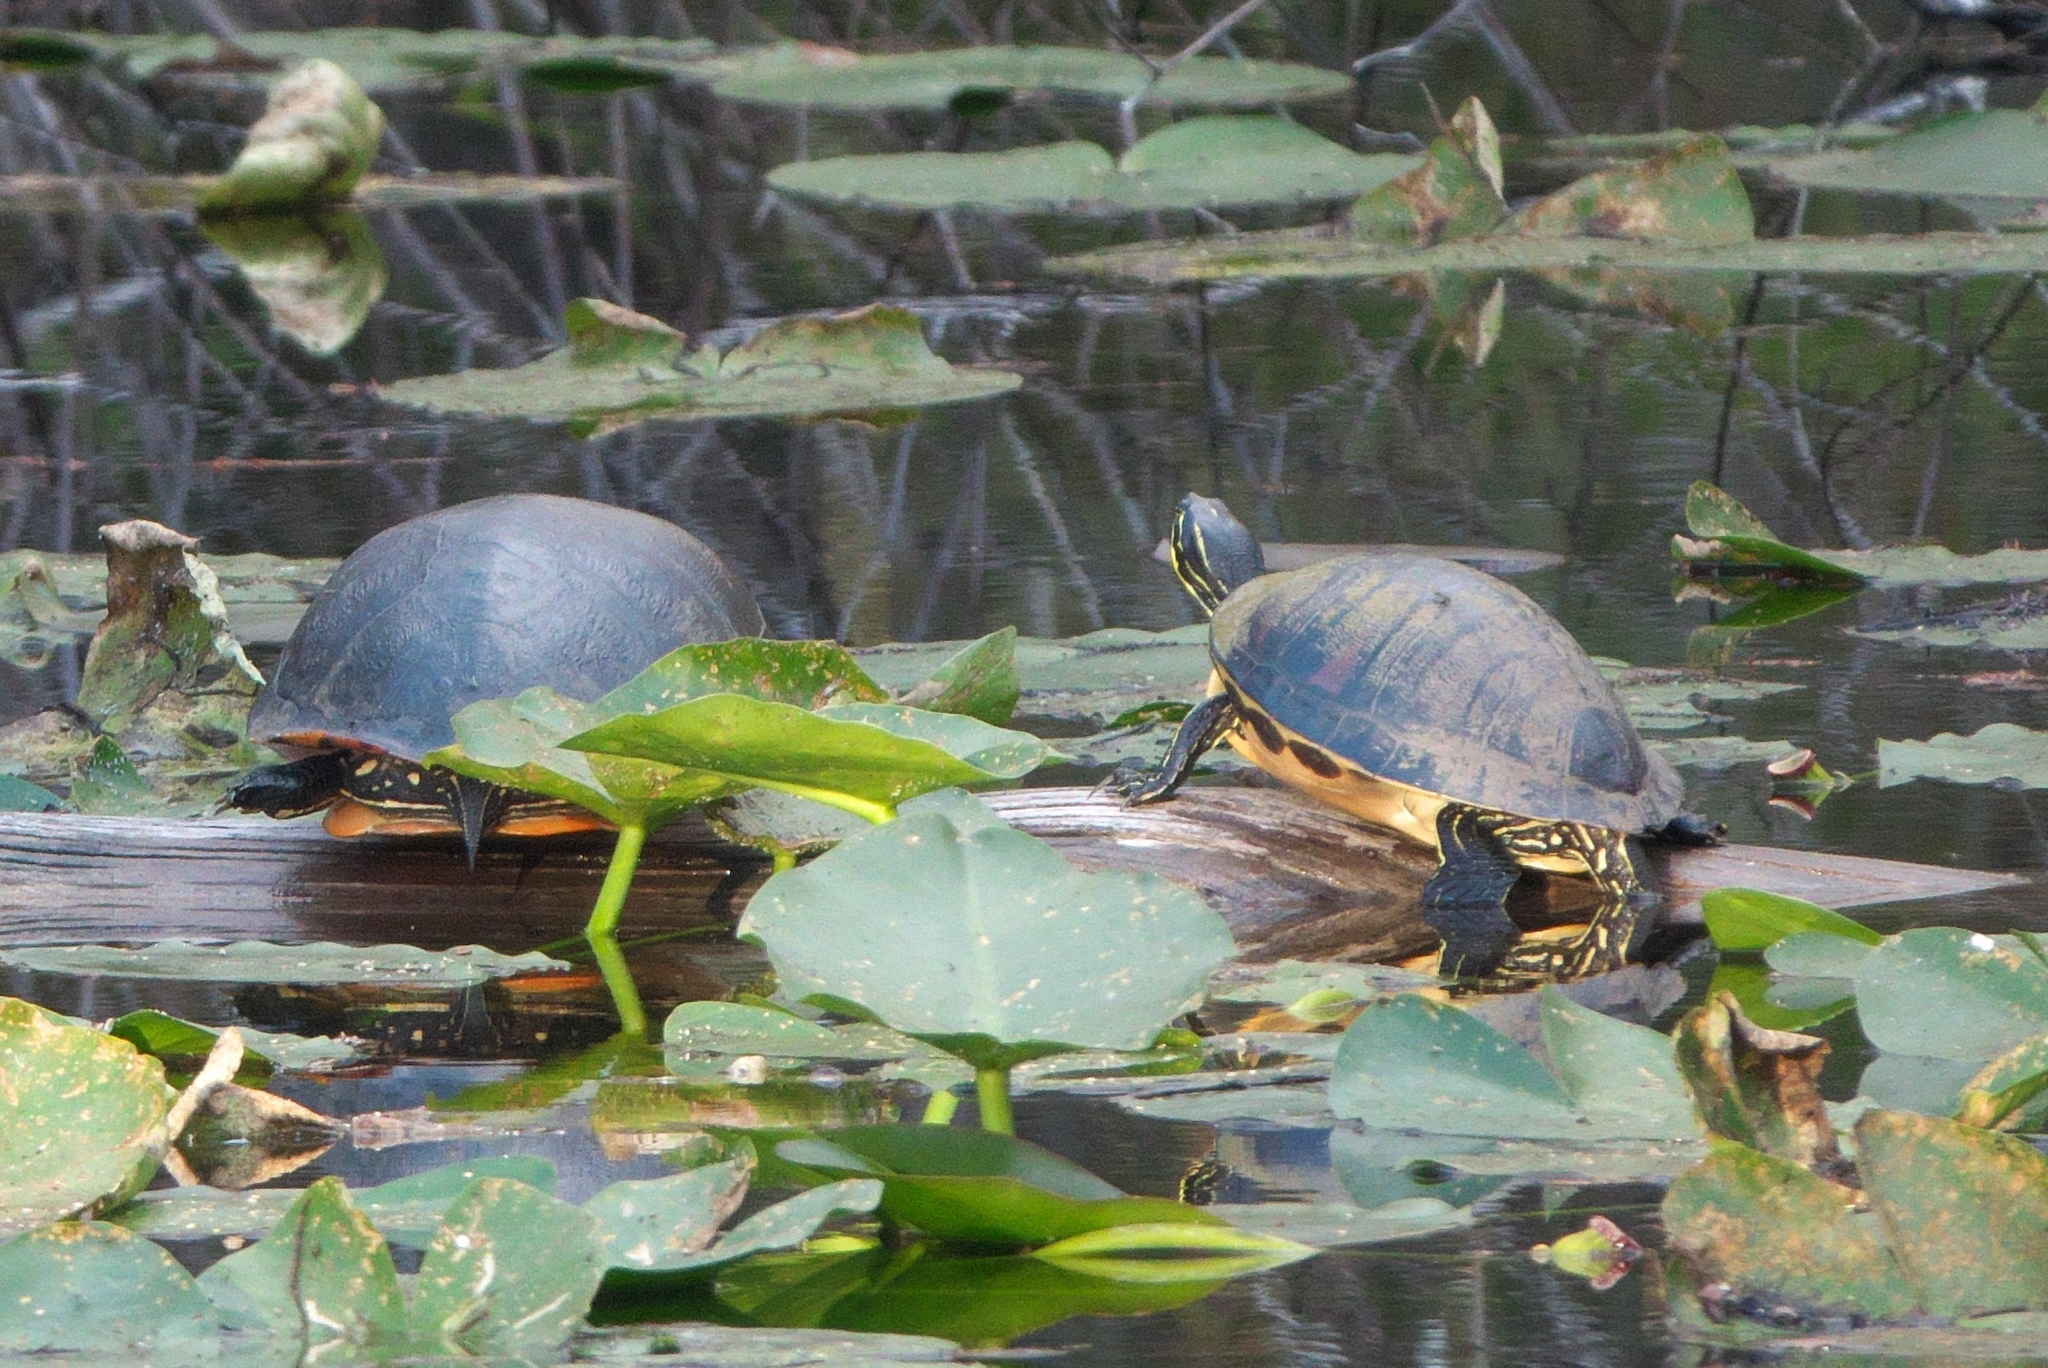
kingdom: Animalia
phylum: Chordata
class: Testudines
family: Emydidae
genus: Pseudemys
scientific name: Pseudemys nelsoni
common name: Florida red-bellied turtle
